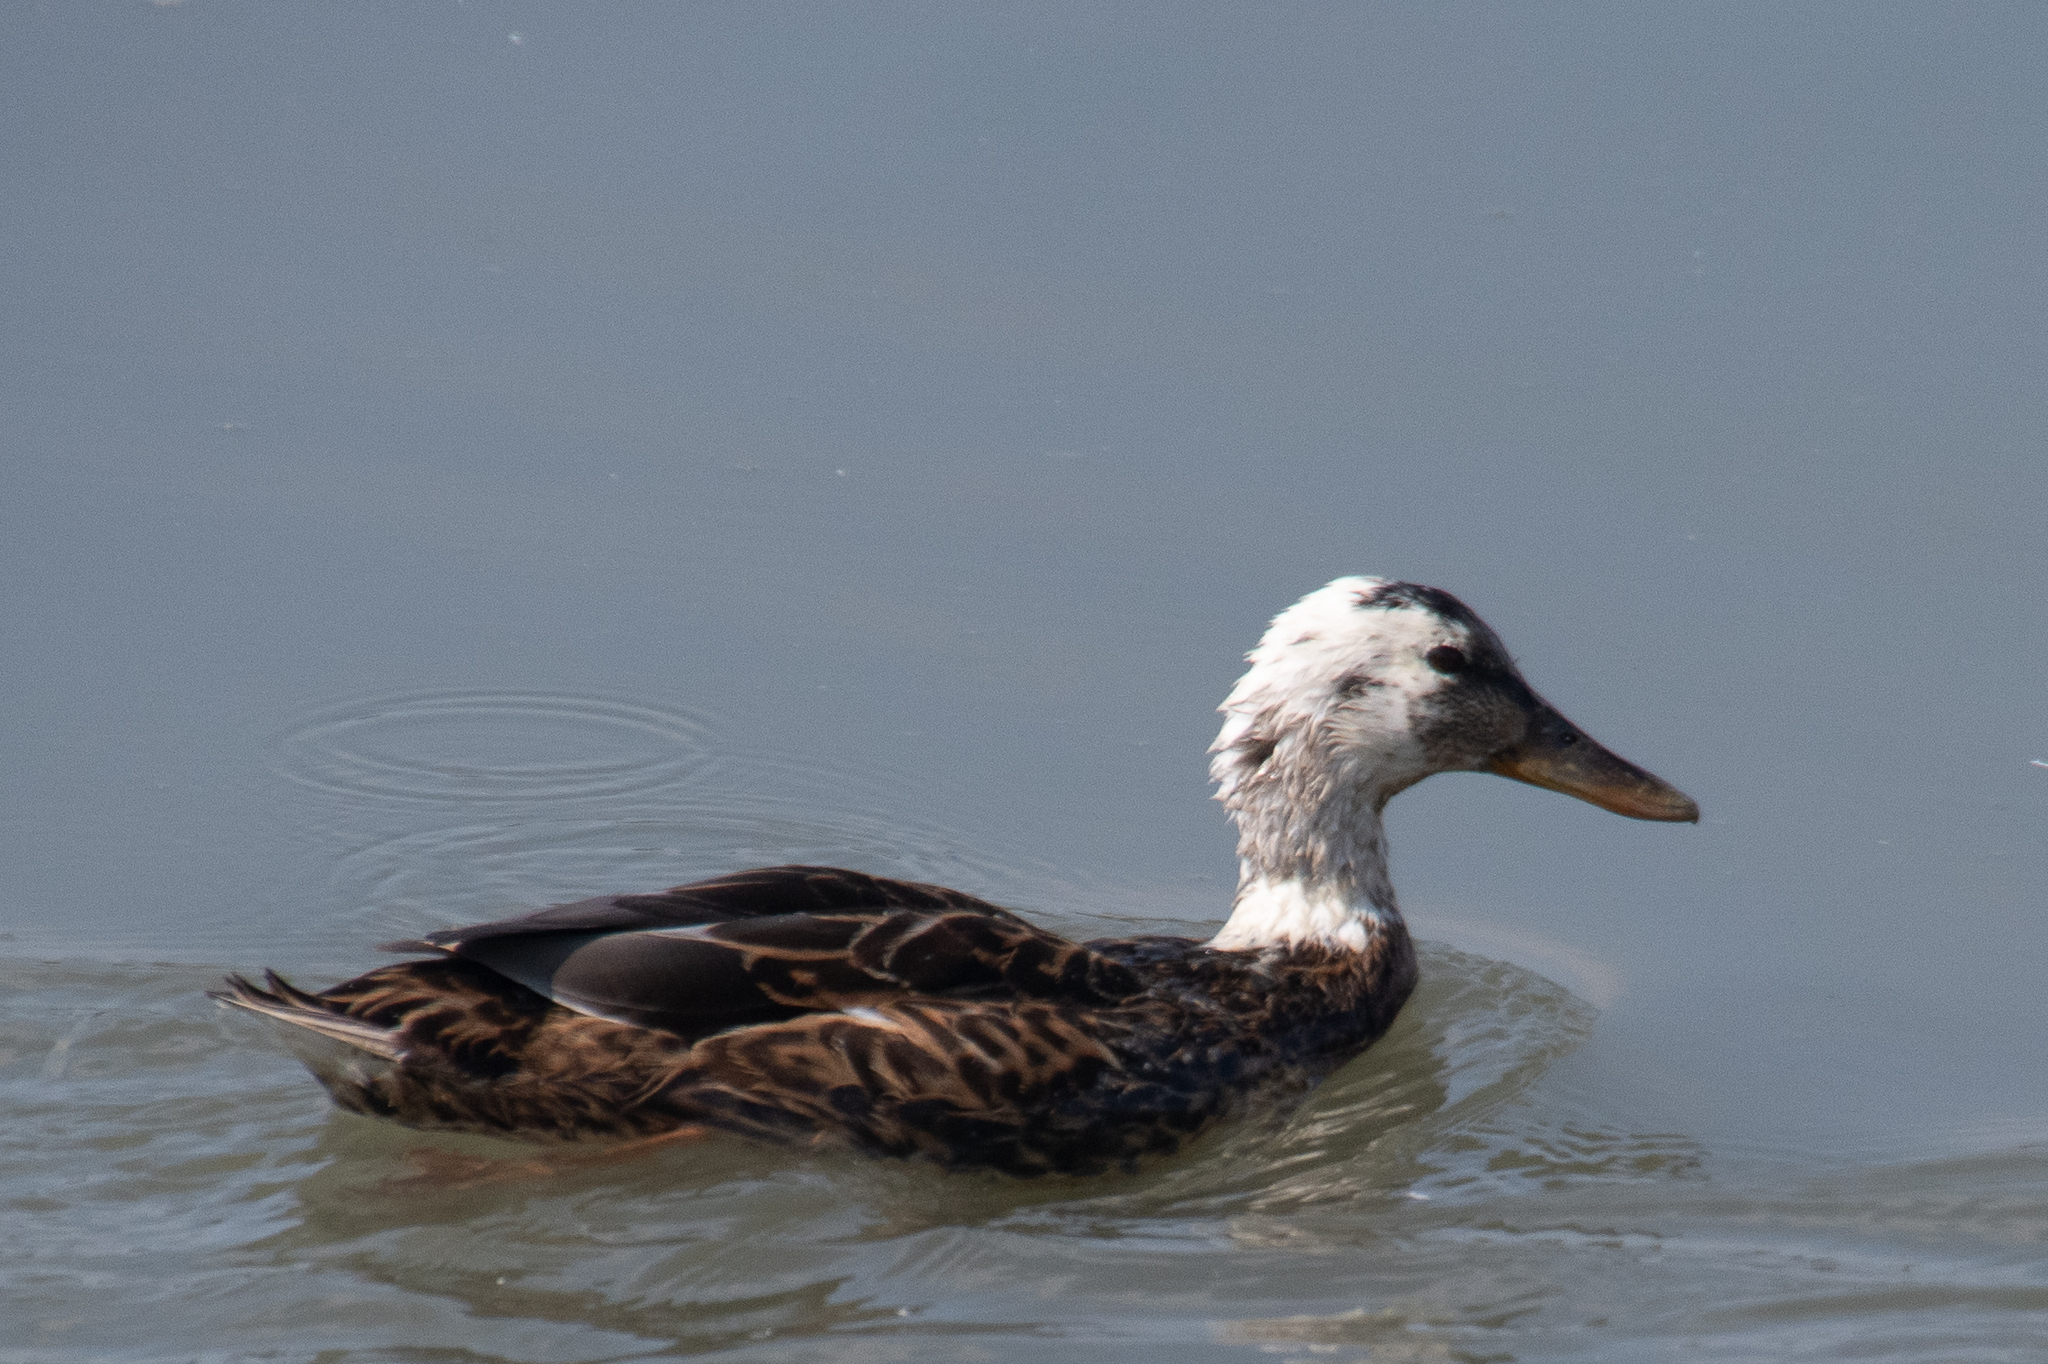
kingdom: Animalia
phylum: Chordata
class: Aves
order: Anseriformes
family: Anatidae
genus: Anas
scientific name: Anas platyrhynchos
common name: Mallard
